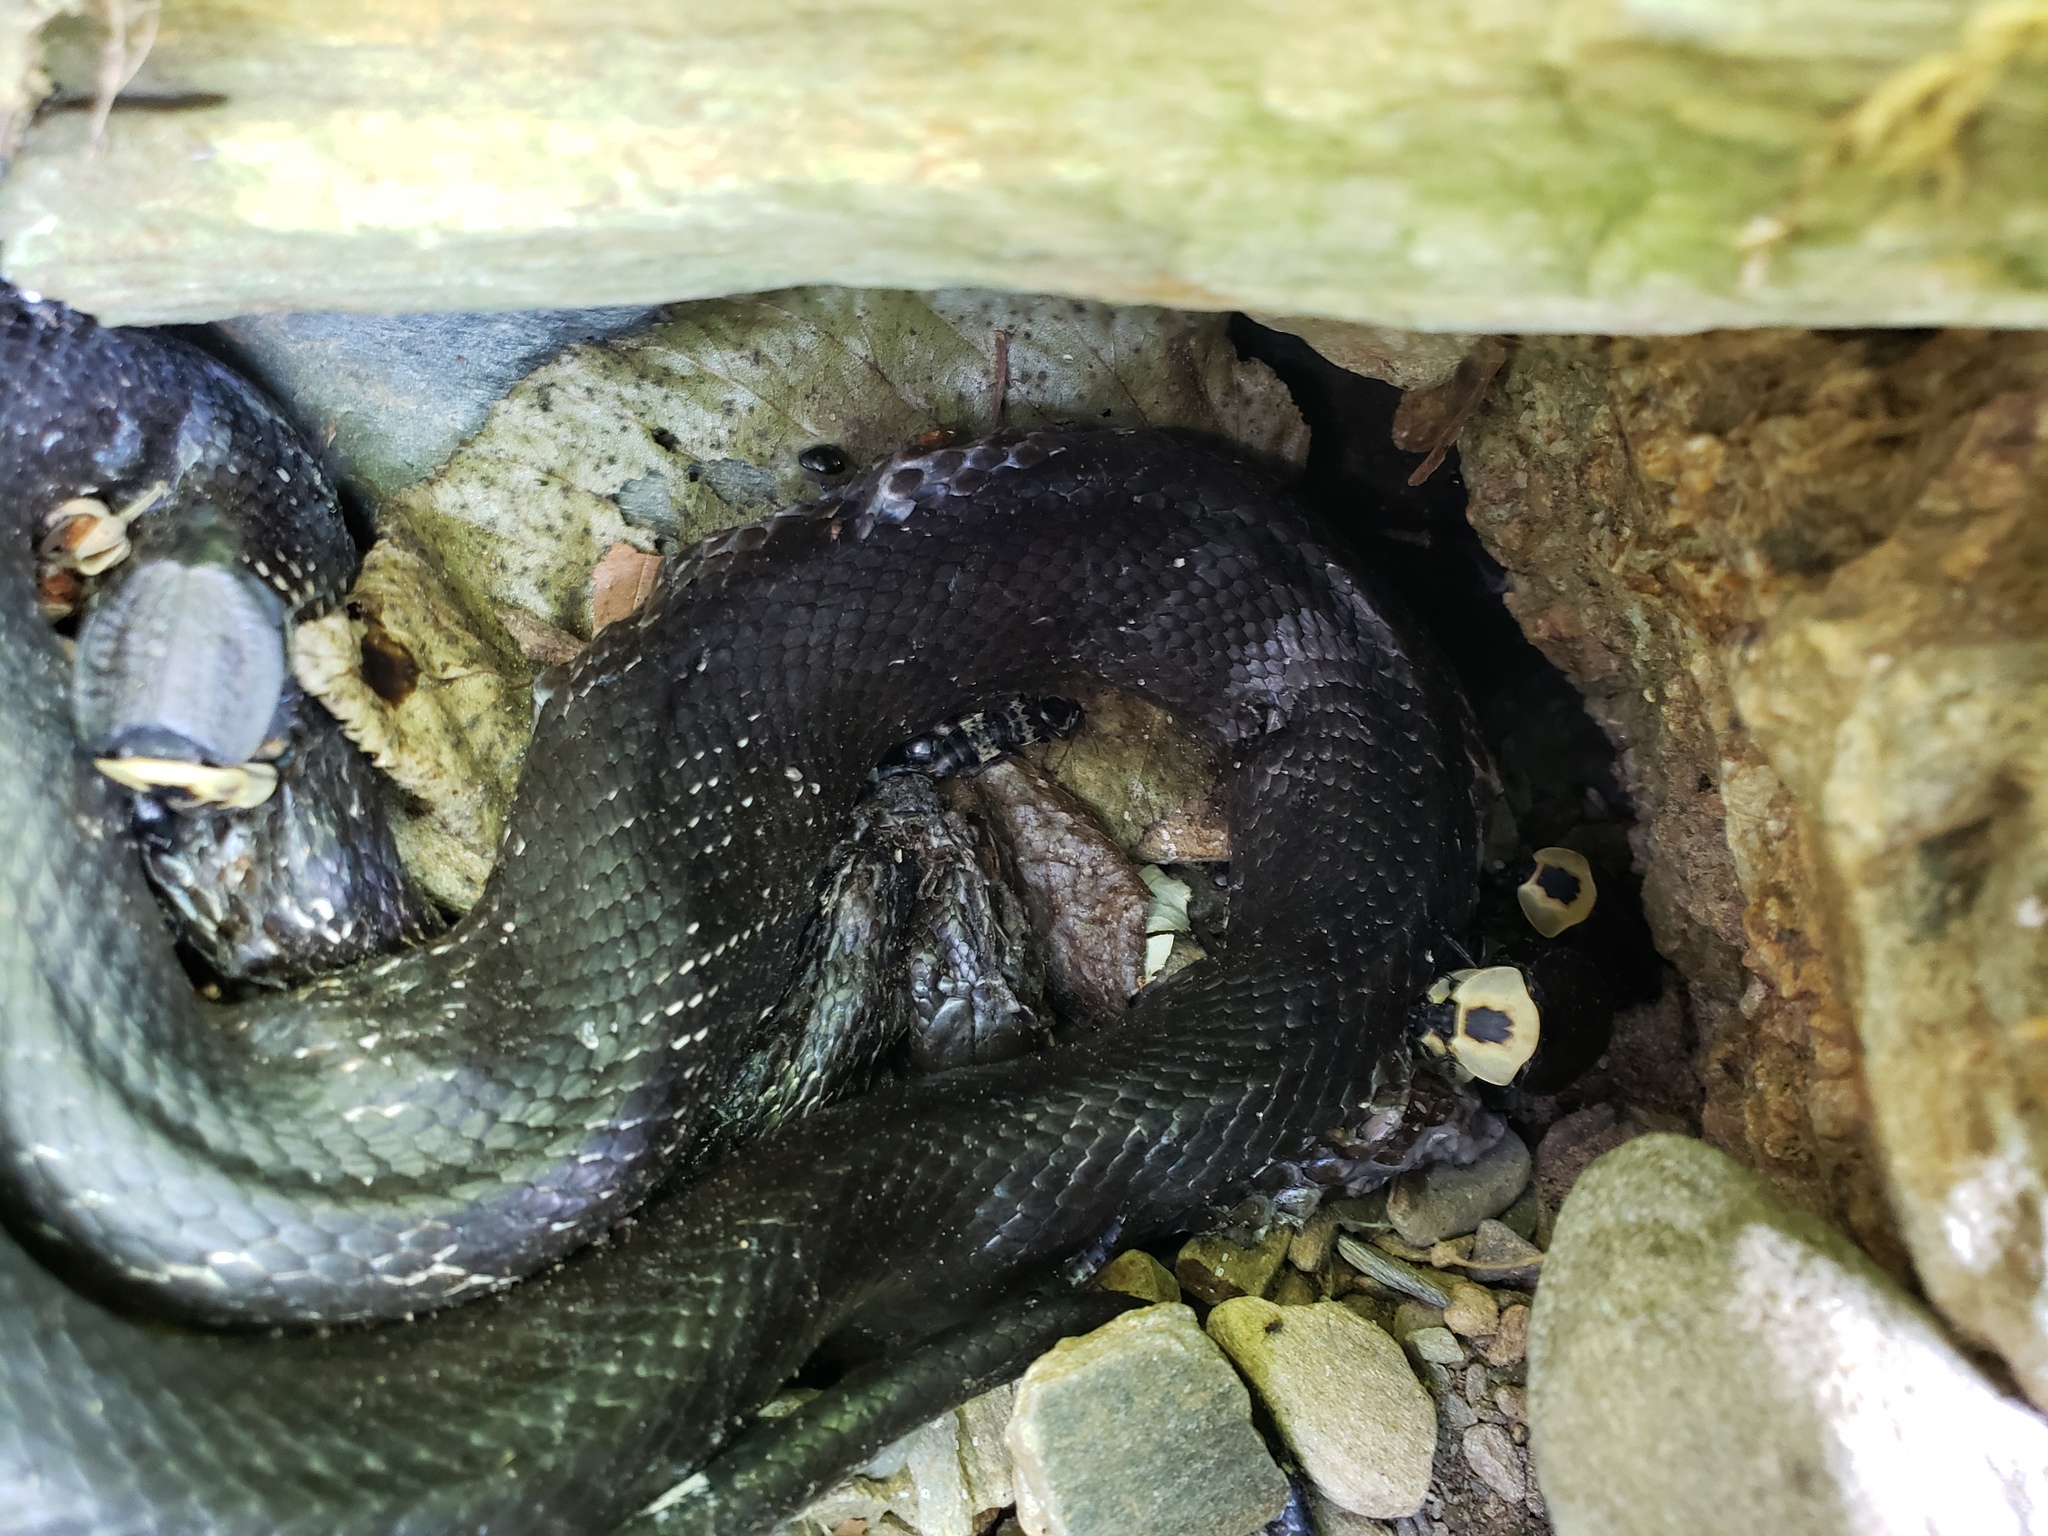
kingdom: Animalia
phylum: Chordata
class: Squamata
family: Colubridae
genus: Pantherophis
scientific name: Pantherophis alleghaniensis
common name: Eastern rat snake
